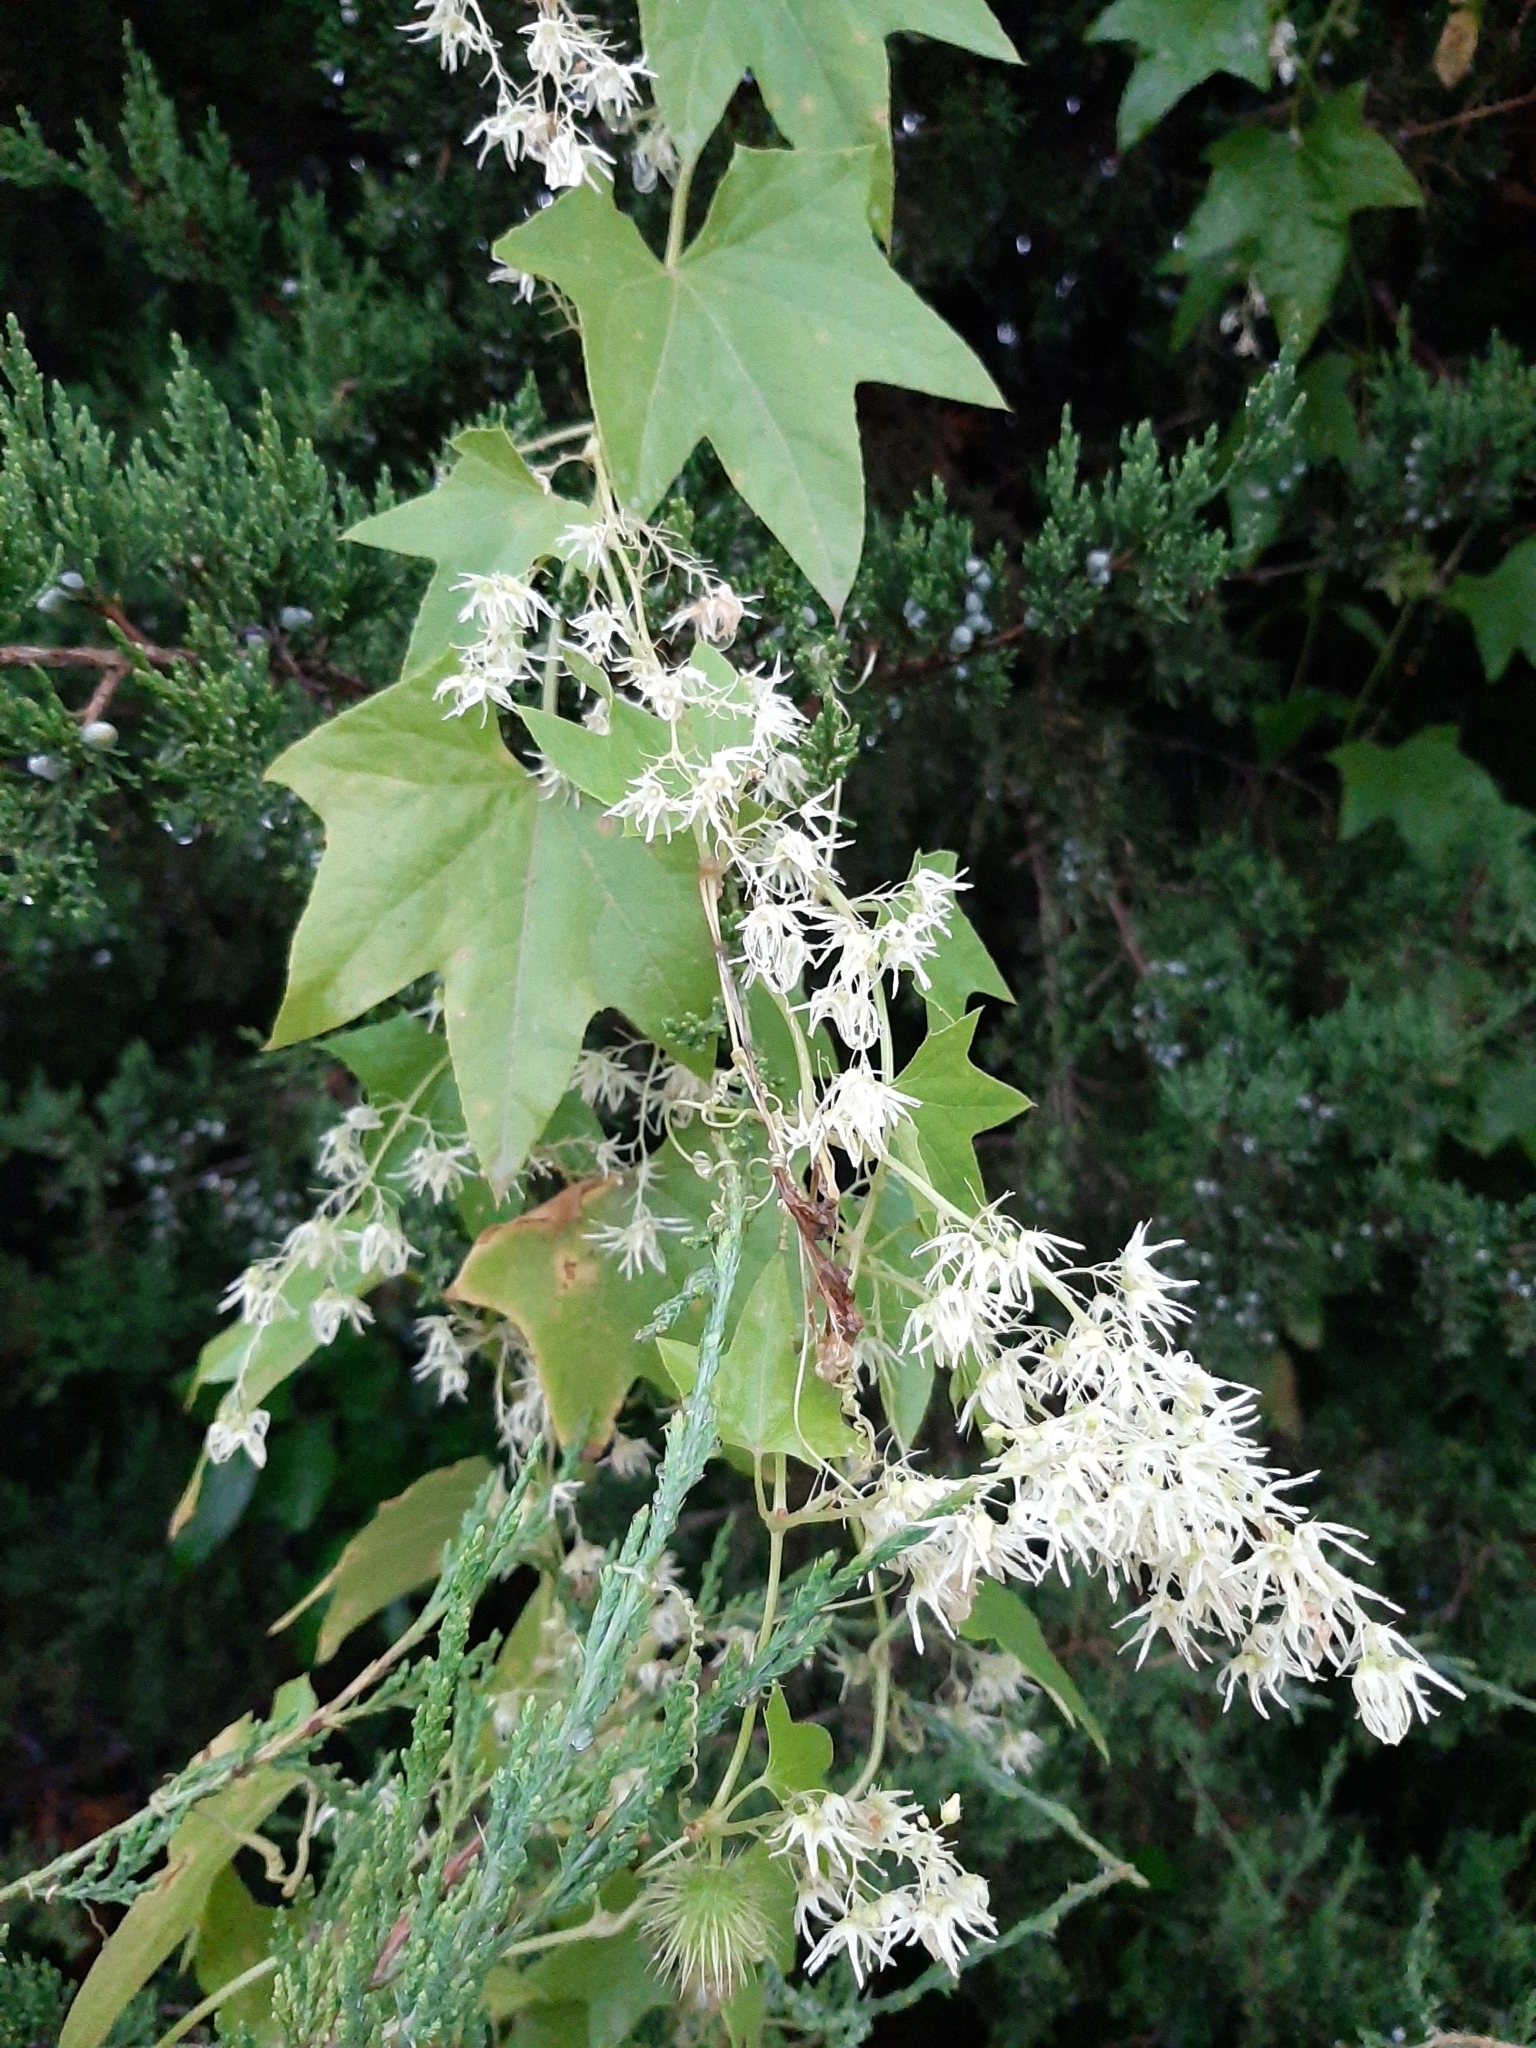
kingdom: Plantae
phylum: Tracheophyta
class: Magnoliopsida
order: Cucurbitales
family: Cucurbitaceae
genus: Echinocystis
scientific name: Echinocystis lobata
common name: Wild cucumber
